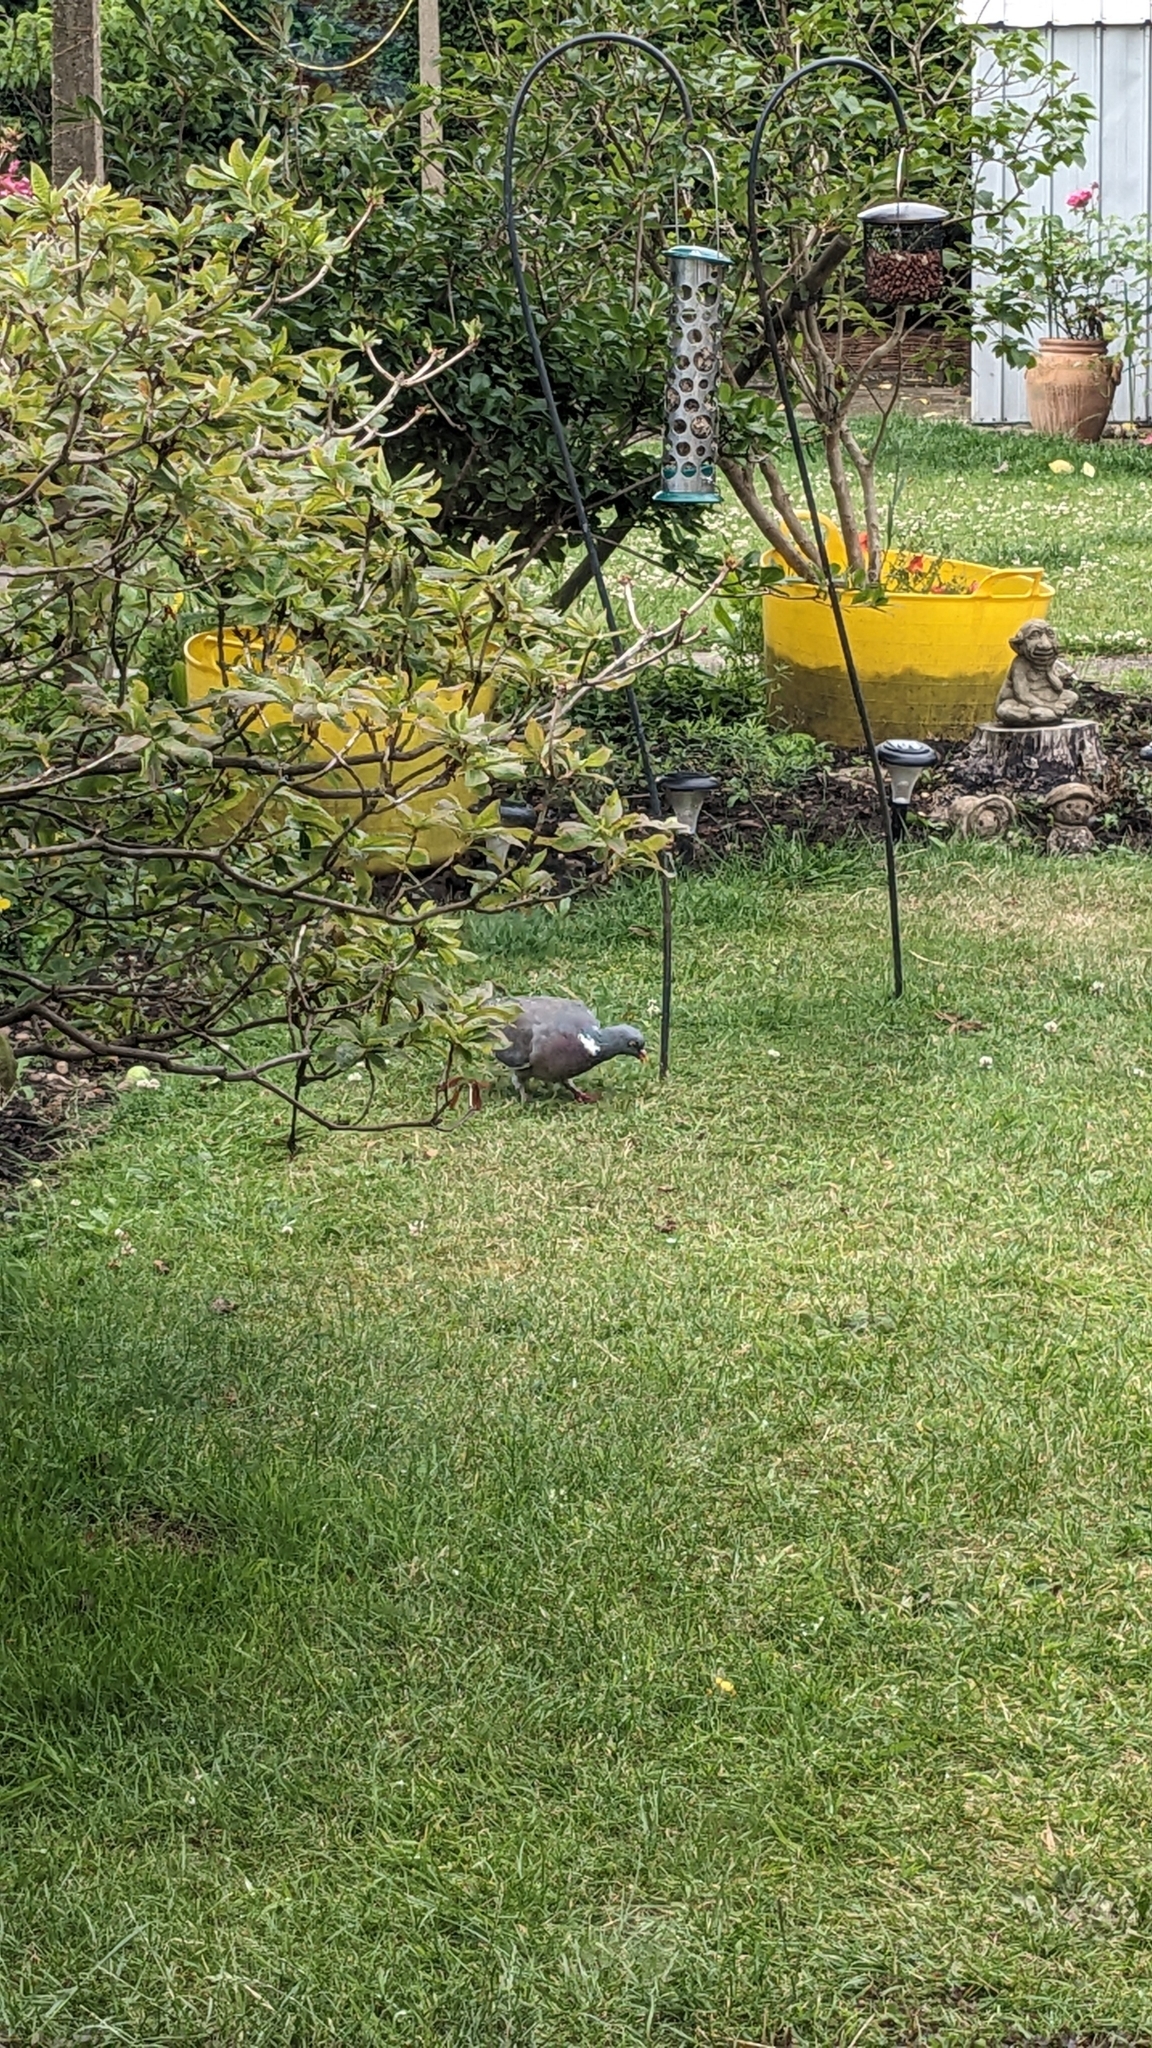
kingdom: Animalia
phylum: Chordata
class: Aves
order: Columbiformes
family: Columbidae
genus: Columba
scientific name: Columba palumbus
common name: Common wood pigeon
